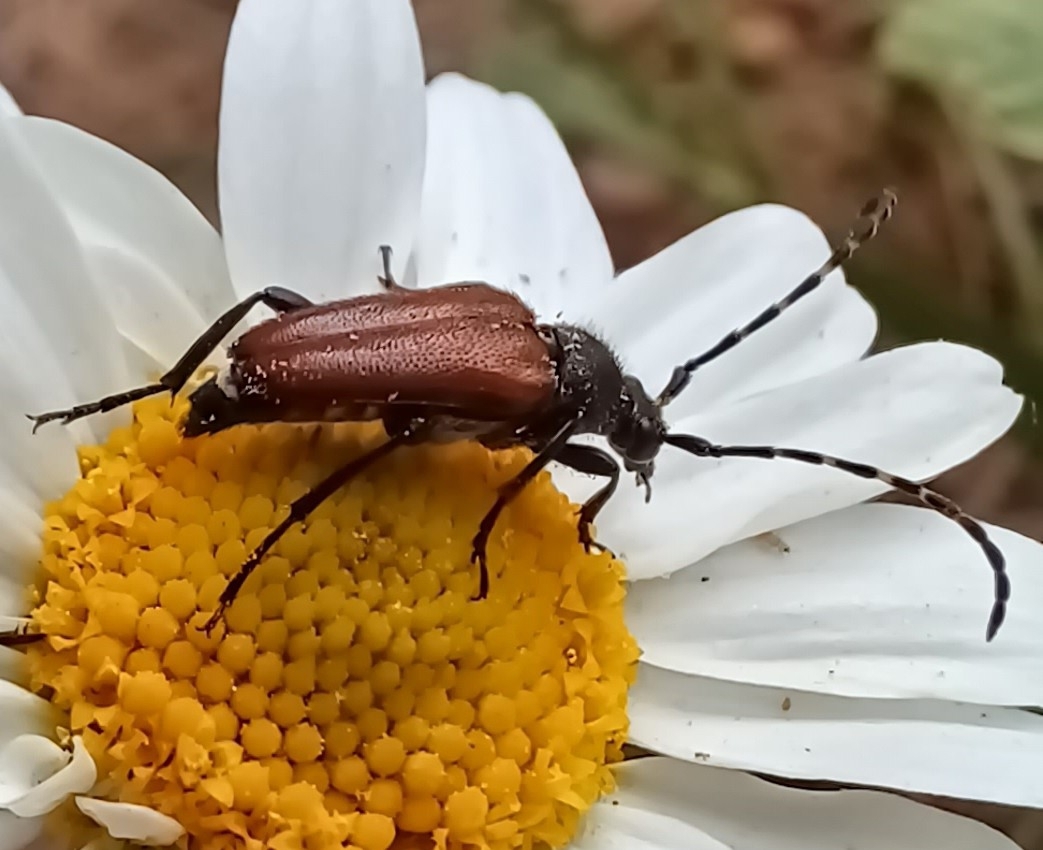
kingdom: Animalia
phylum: Arthropoda
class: Insecta
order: Coleoptera
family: Cerambycidae
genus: Paracorymbia
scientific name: Paracorymbia maculicornis
